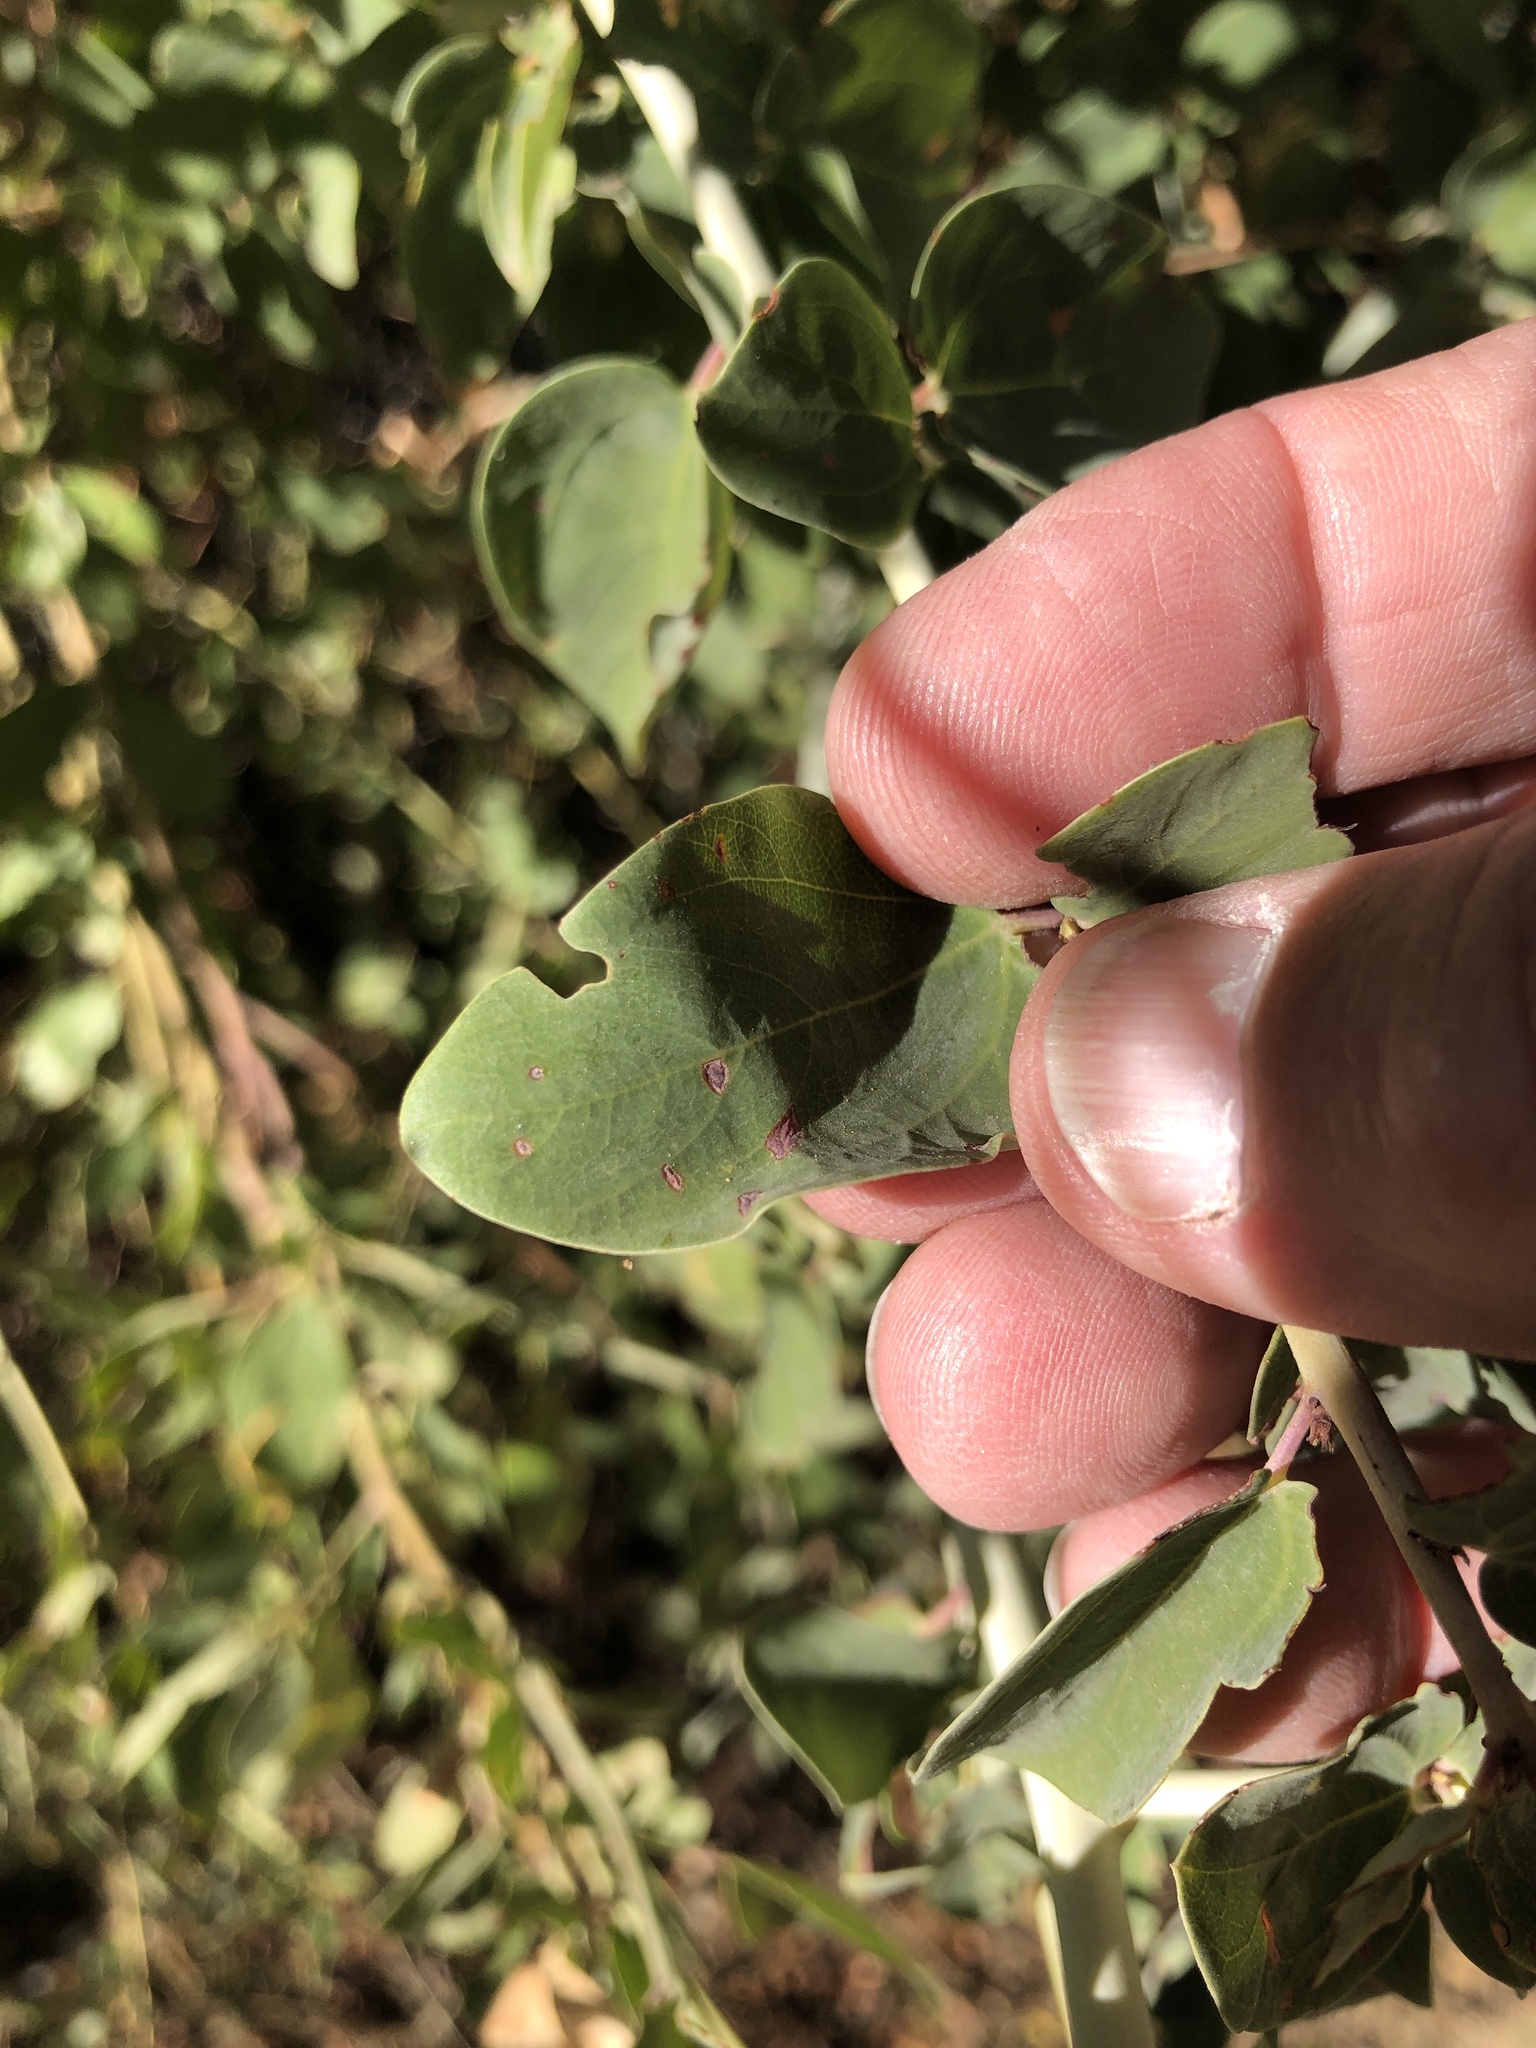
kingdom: Plantae
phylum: Tracheophyta
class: Magnoliopsida
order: Rosales
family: Rhamnaceae
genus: Ceanothus
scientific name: Ceanothus leucodermis
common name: Chaparral whitethorn
